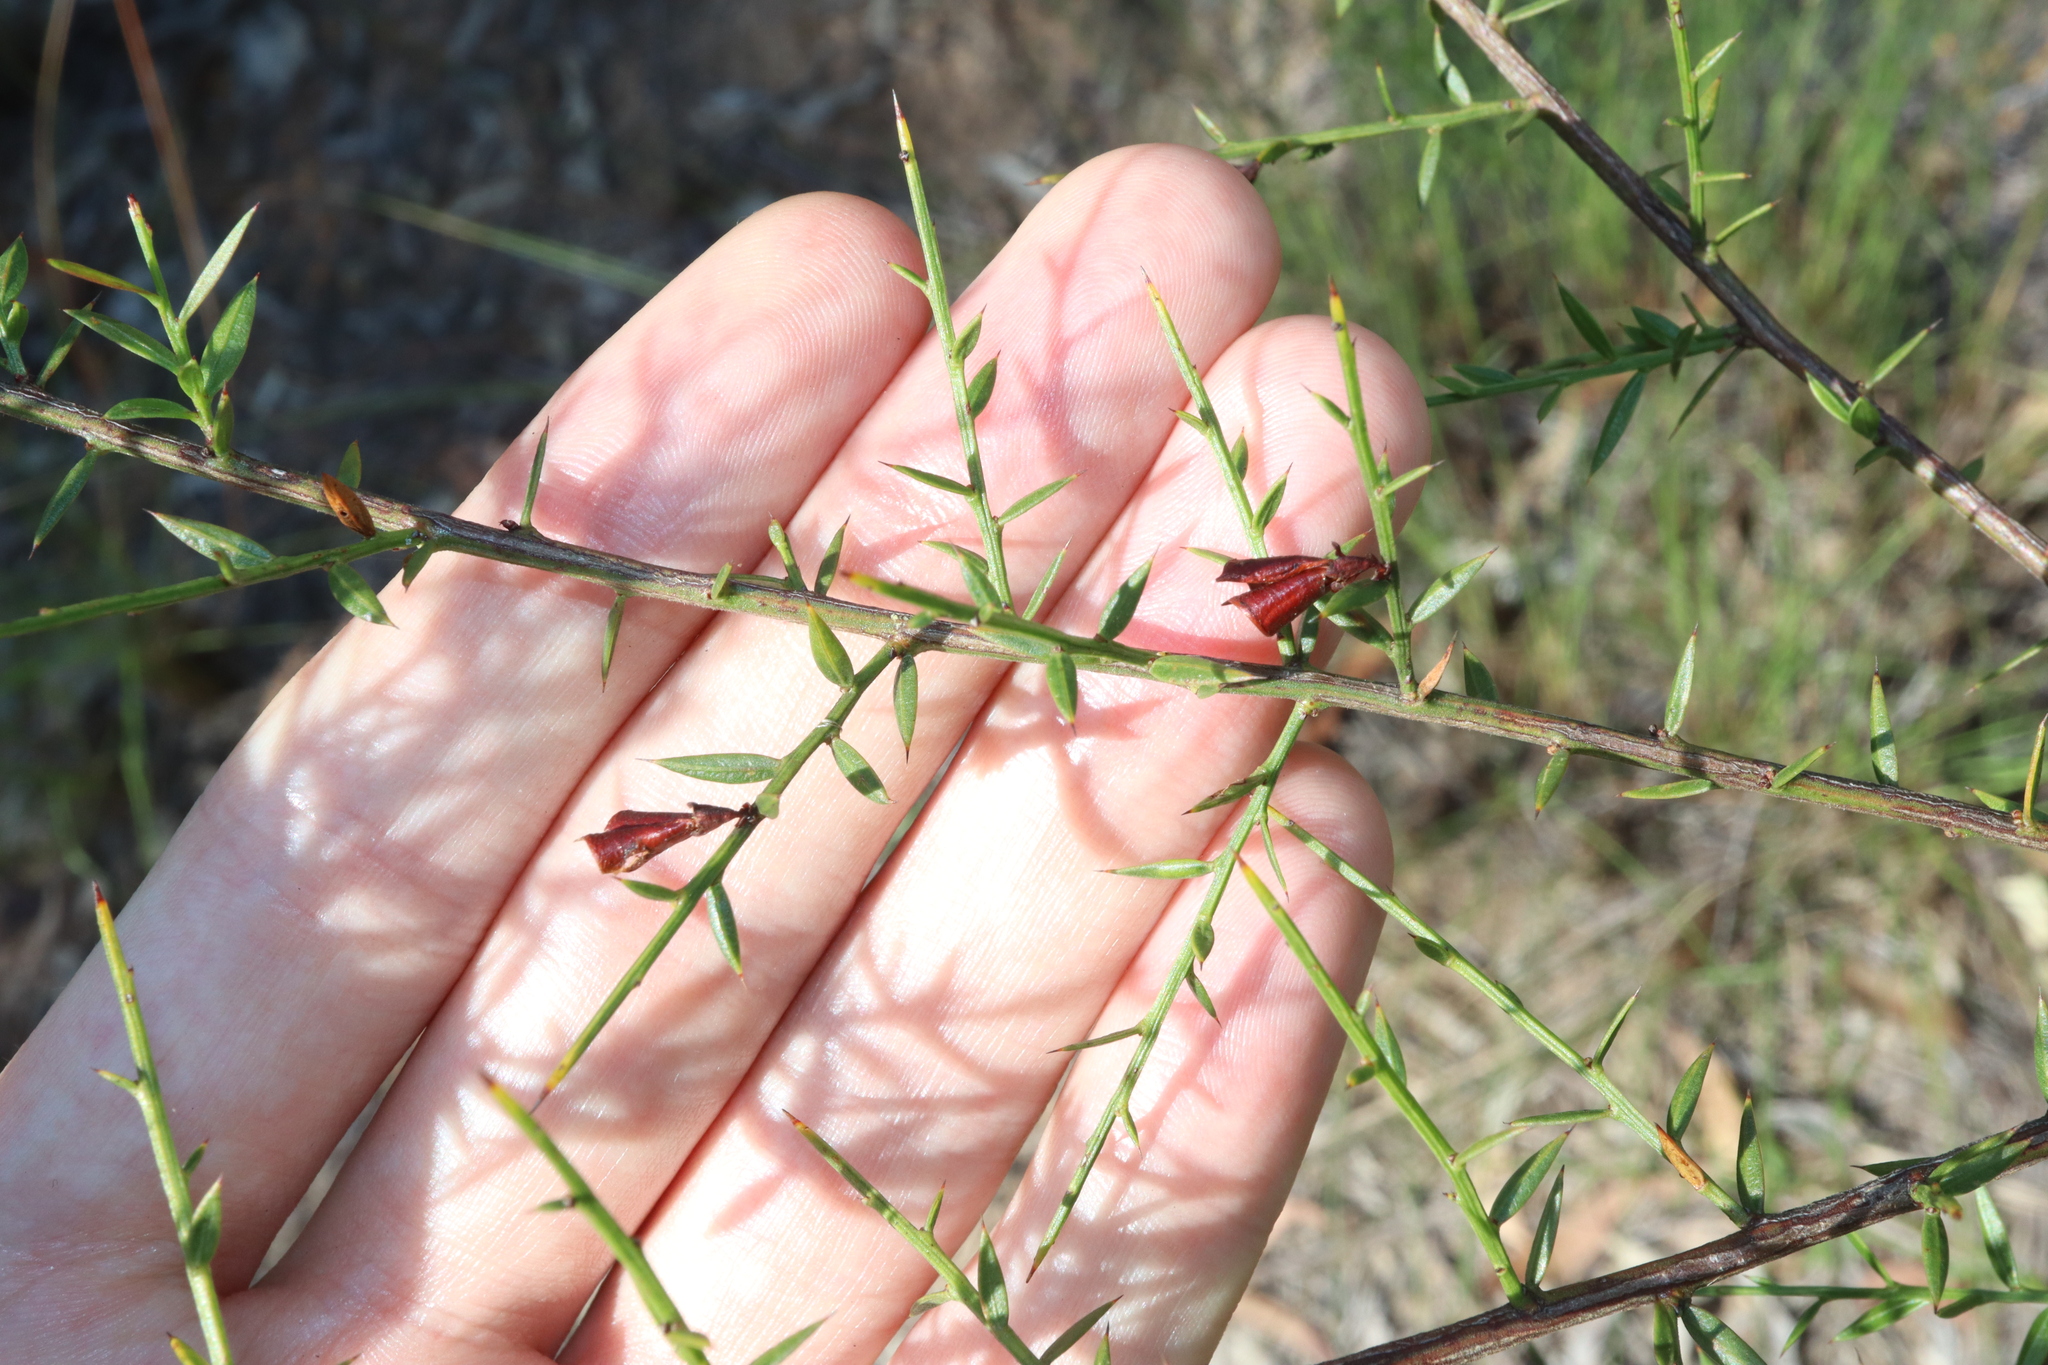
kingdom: Plantae
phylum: Tracheophyta
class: Magnoliopsida
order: Fabales
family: Fabaceae
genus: Daviesia
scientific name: Daviesia ulicifolia
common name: Gorse bitter-pea
